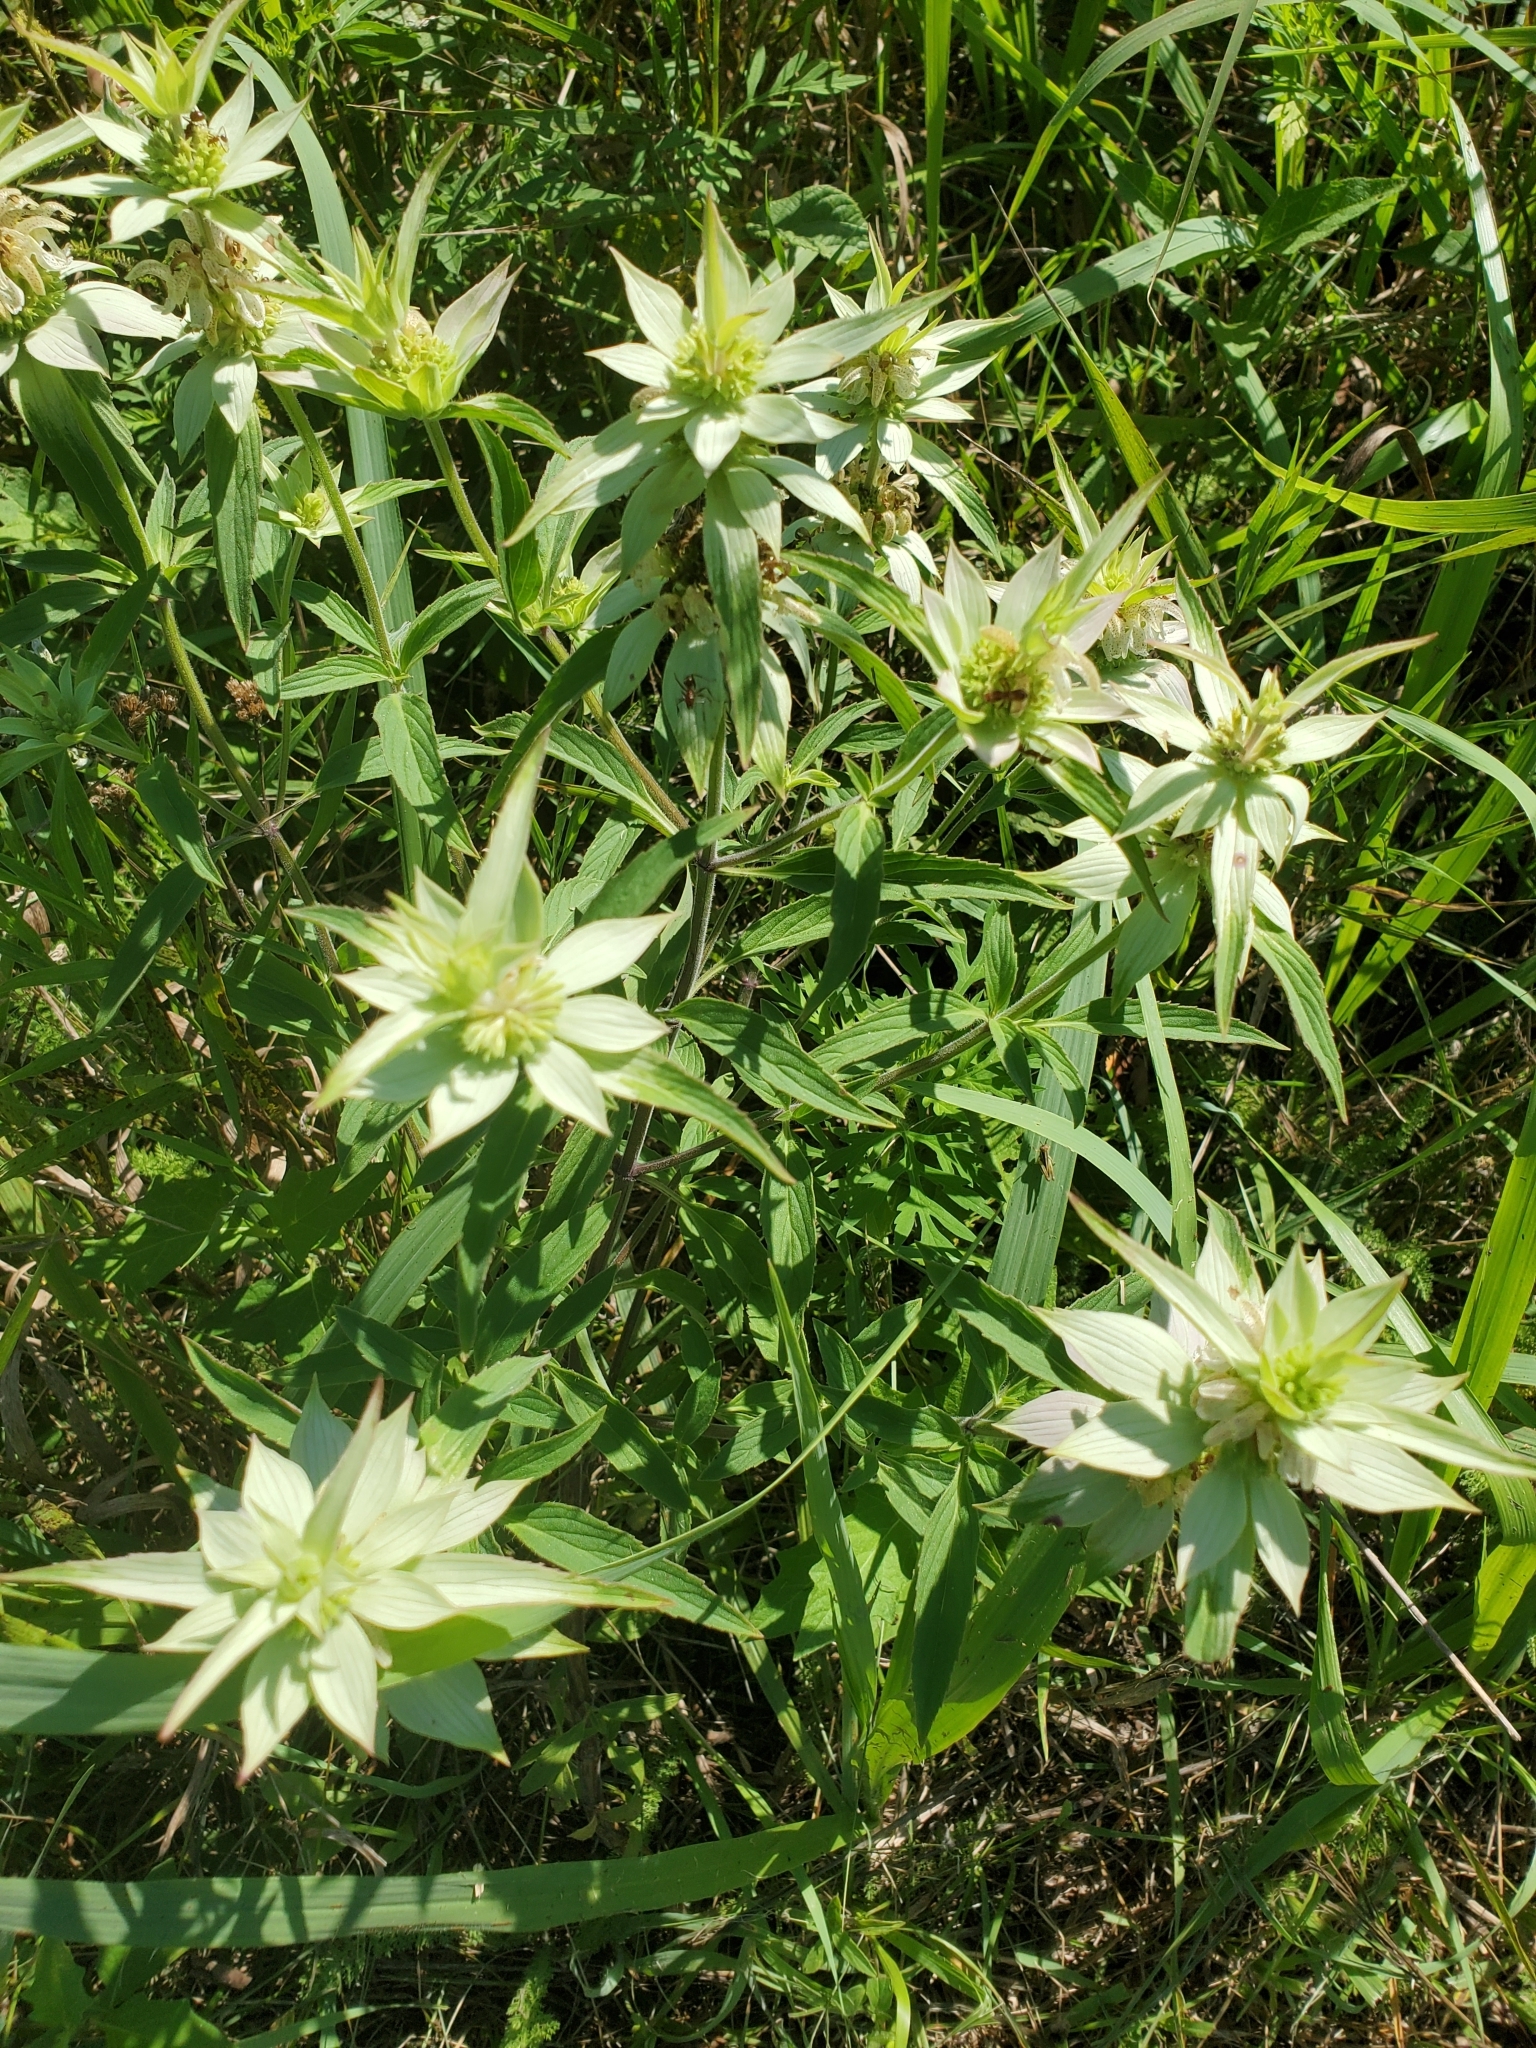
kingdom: Plantae
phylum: Tracheophyta
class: Magnoliopsida
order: Lamiales
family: Lamiaceae
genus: Monarda
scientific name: Monarda punctata
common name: Dotted monarda
